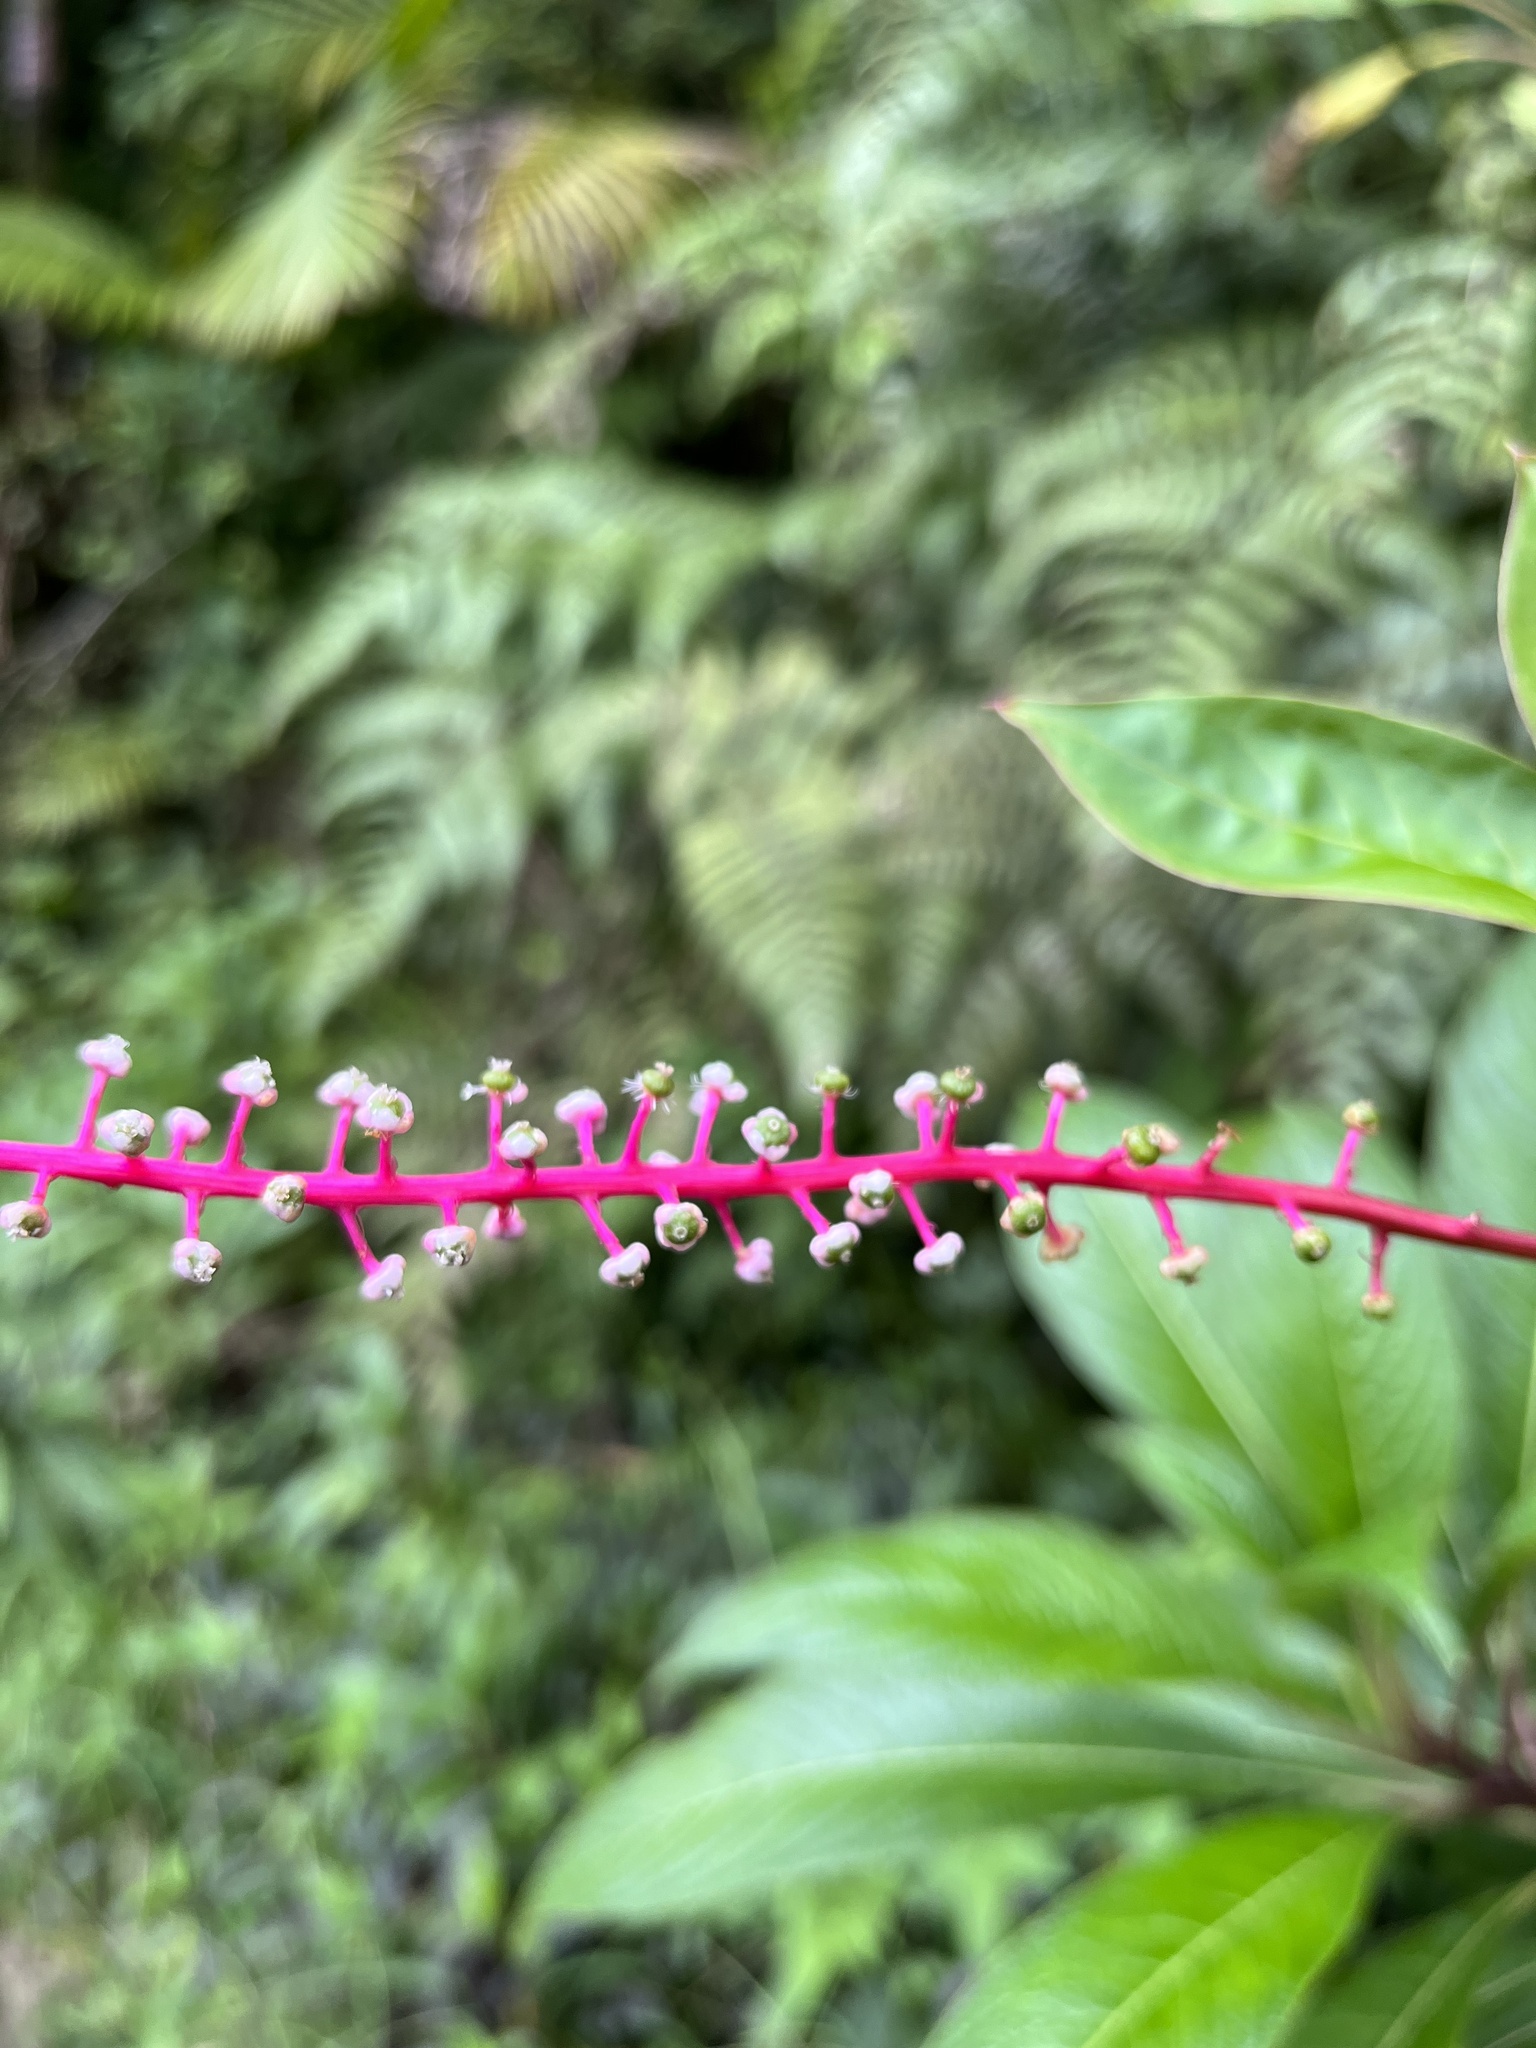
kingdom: Plantae
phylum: Tracheophyta
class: Magnoliopsida
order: Caryophyllales
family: Phytolaccaceae
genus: Phytolacca
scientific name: Phytolacca rivinoides
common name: Venezuelan pokeweed
